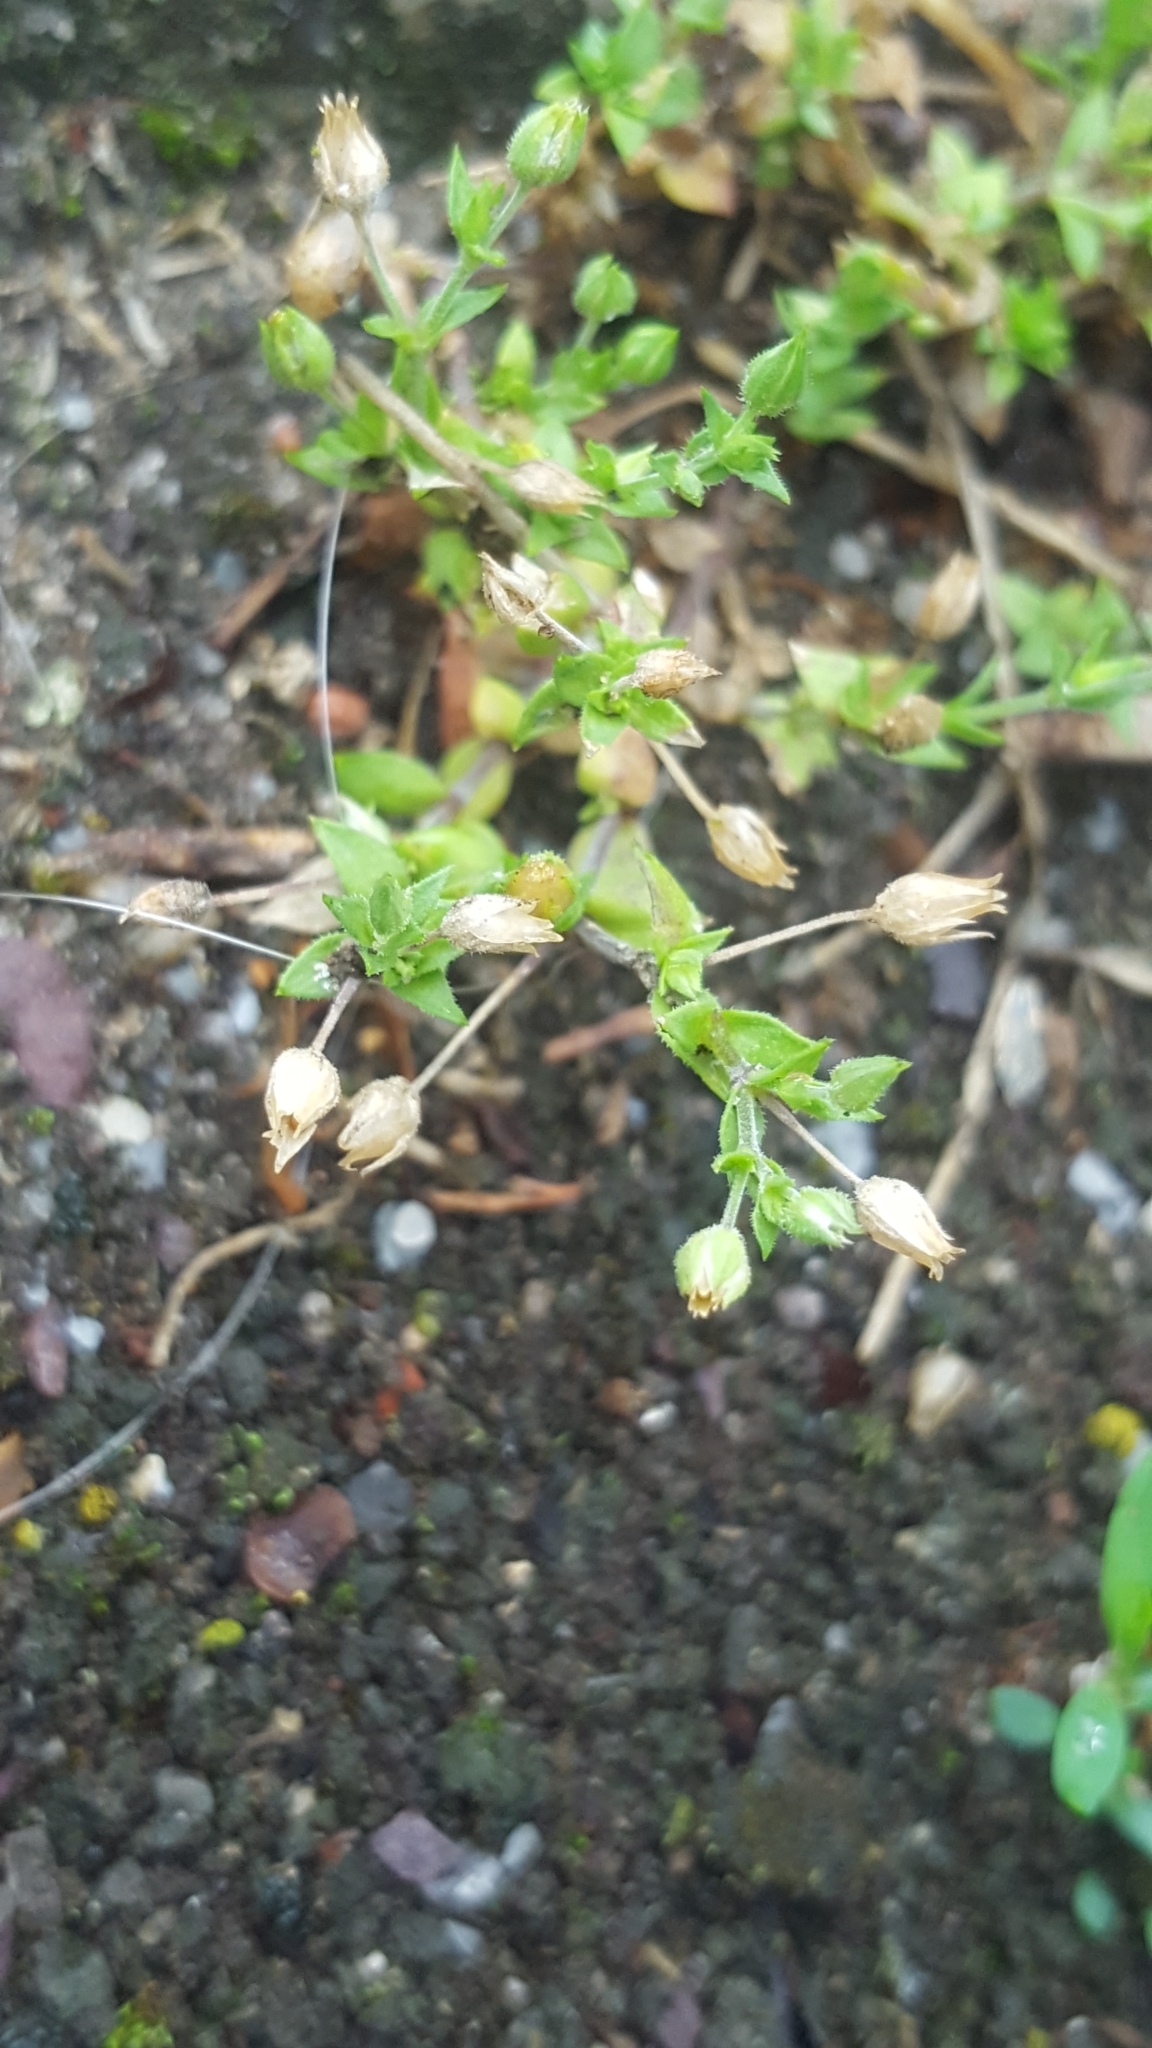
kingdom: Plantae
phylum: Tracheophyta
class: Magnoliopsida
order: Caryophyllales
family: Caryophyllaceae
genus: Arenaria
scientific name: Arenaria serpyllifolia
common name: Thyme-leaved sandwort
